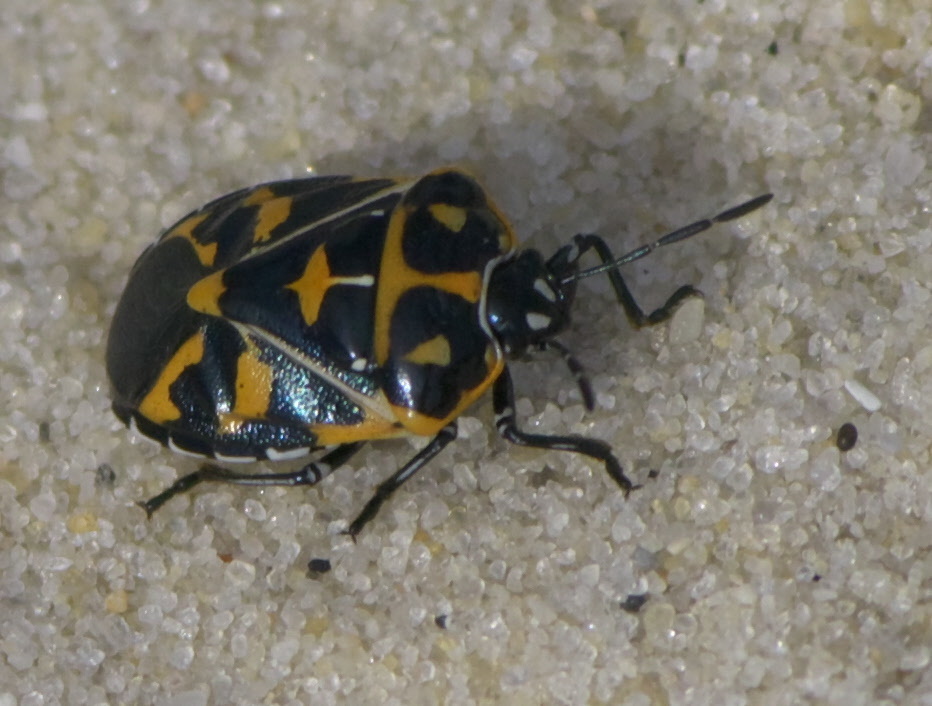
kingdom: Animalia
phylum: Arthropoda
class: Insecta
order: Hemiptera
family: Pentatomidae
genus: Murgantia
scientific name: Murgantia histrionica
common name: Harlequin bug
